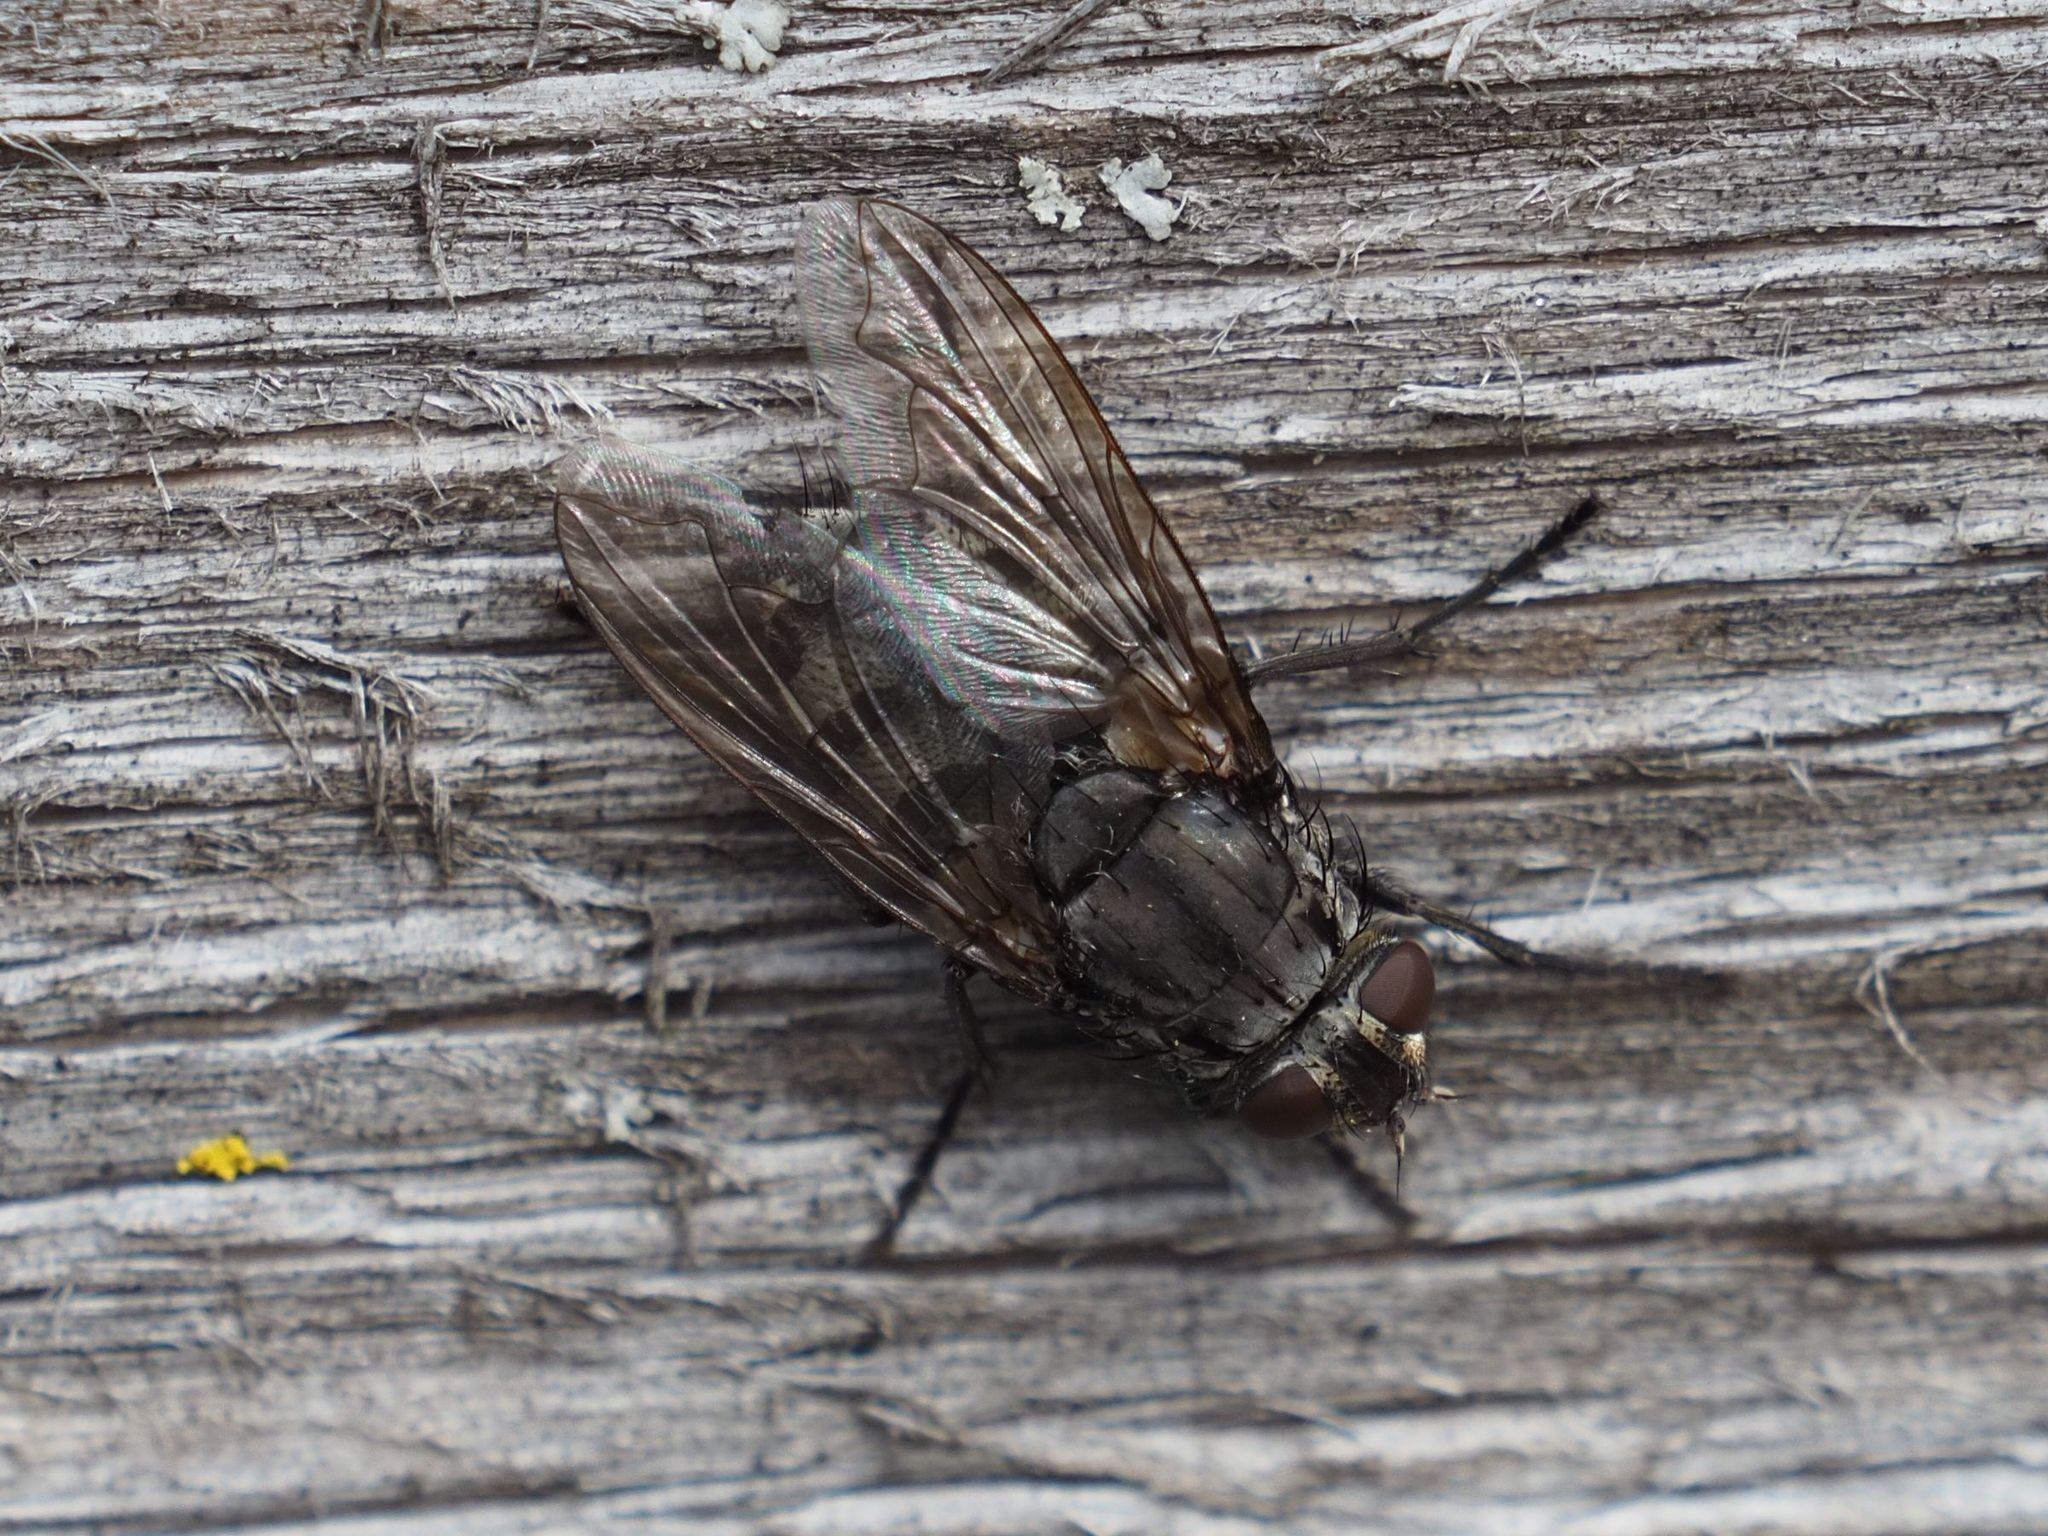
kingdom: Animalia
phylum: Arthropoda
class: Insecta
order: Diptera
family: Polleniidae
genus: Pollenia
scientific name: Pollenia vagabunda
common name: Vagabund cluster fly
